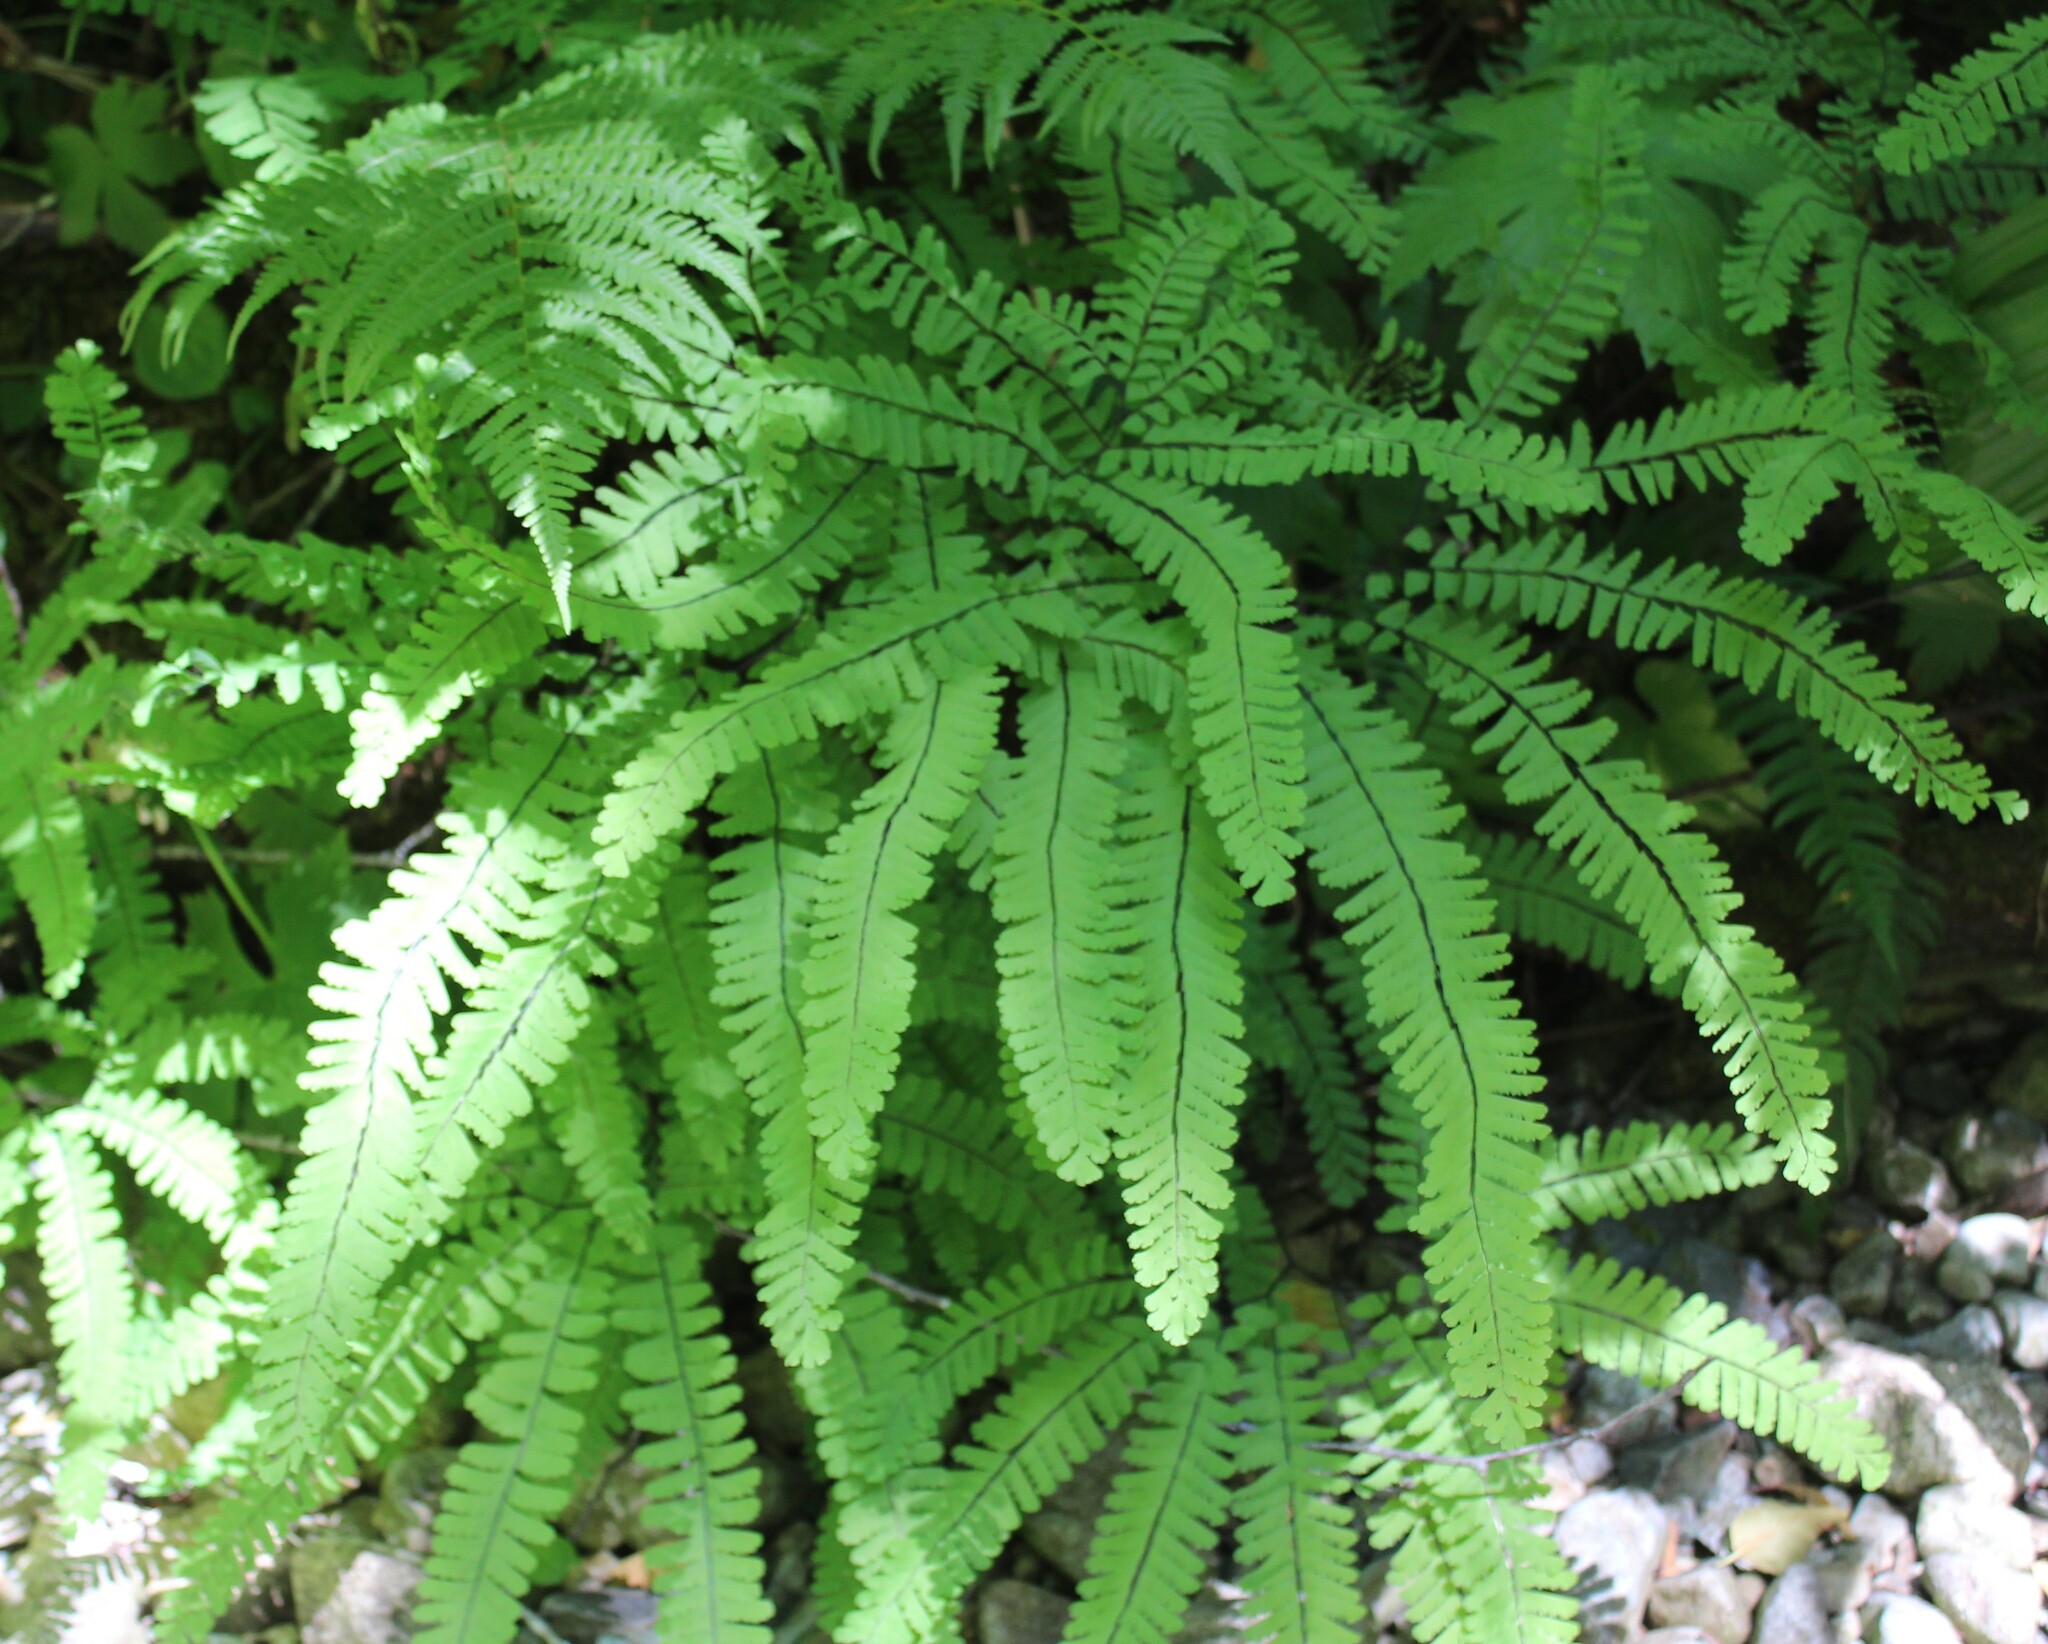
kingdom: Plantae
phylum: Tracheophyta
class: Polypodiopsida
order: Polypodiales
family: Pteridaceae
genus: Adiantum
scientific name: Adiantum aleuticum
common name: Aleutian maidenhair fern
